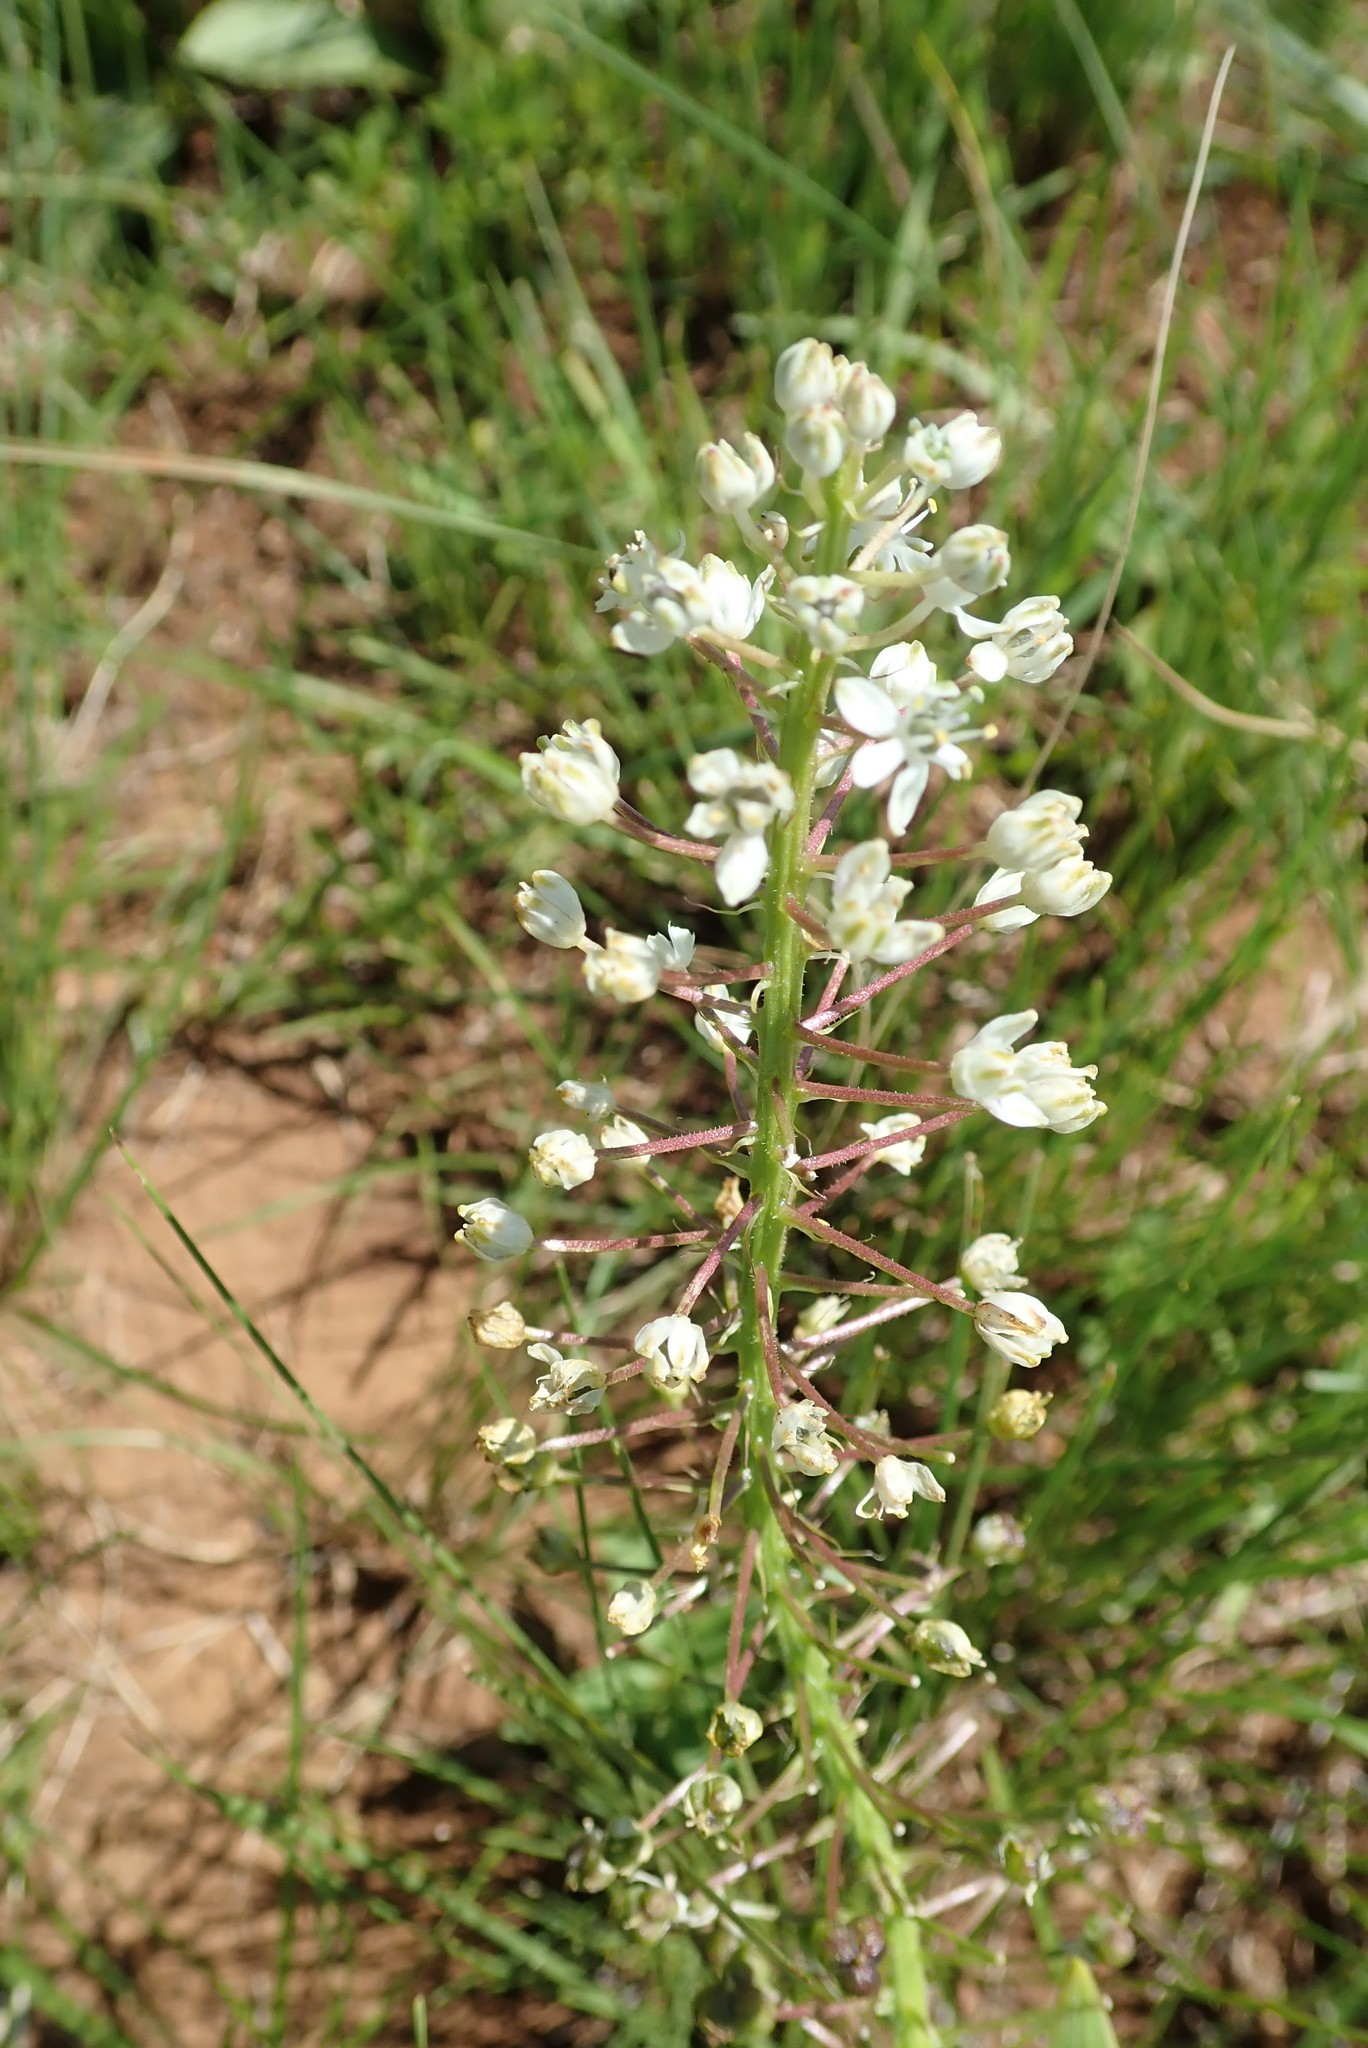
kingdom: Plantae
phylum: Tracheophyta
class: Liliopsida
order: Asparagales
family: Asparagaceae
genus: Schizocarphus
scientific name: Schizocarphus nervosus
